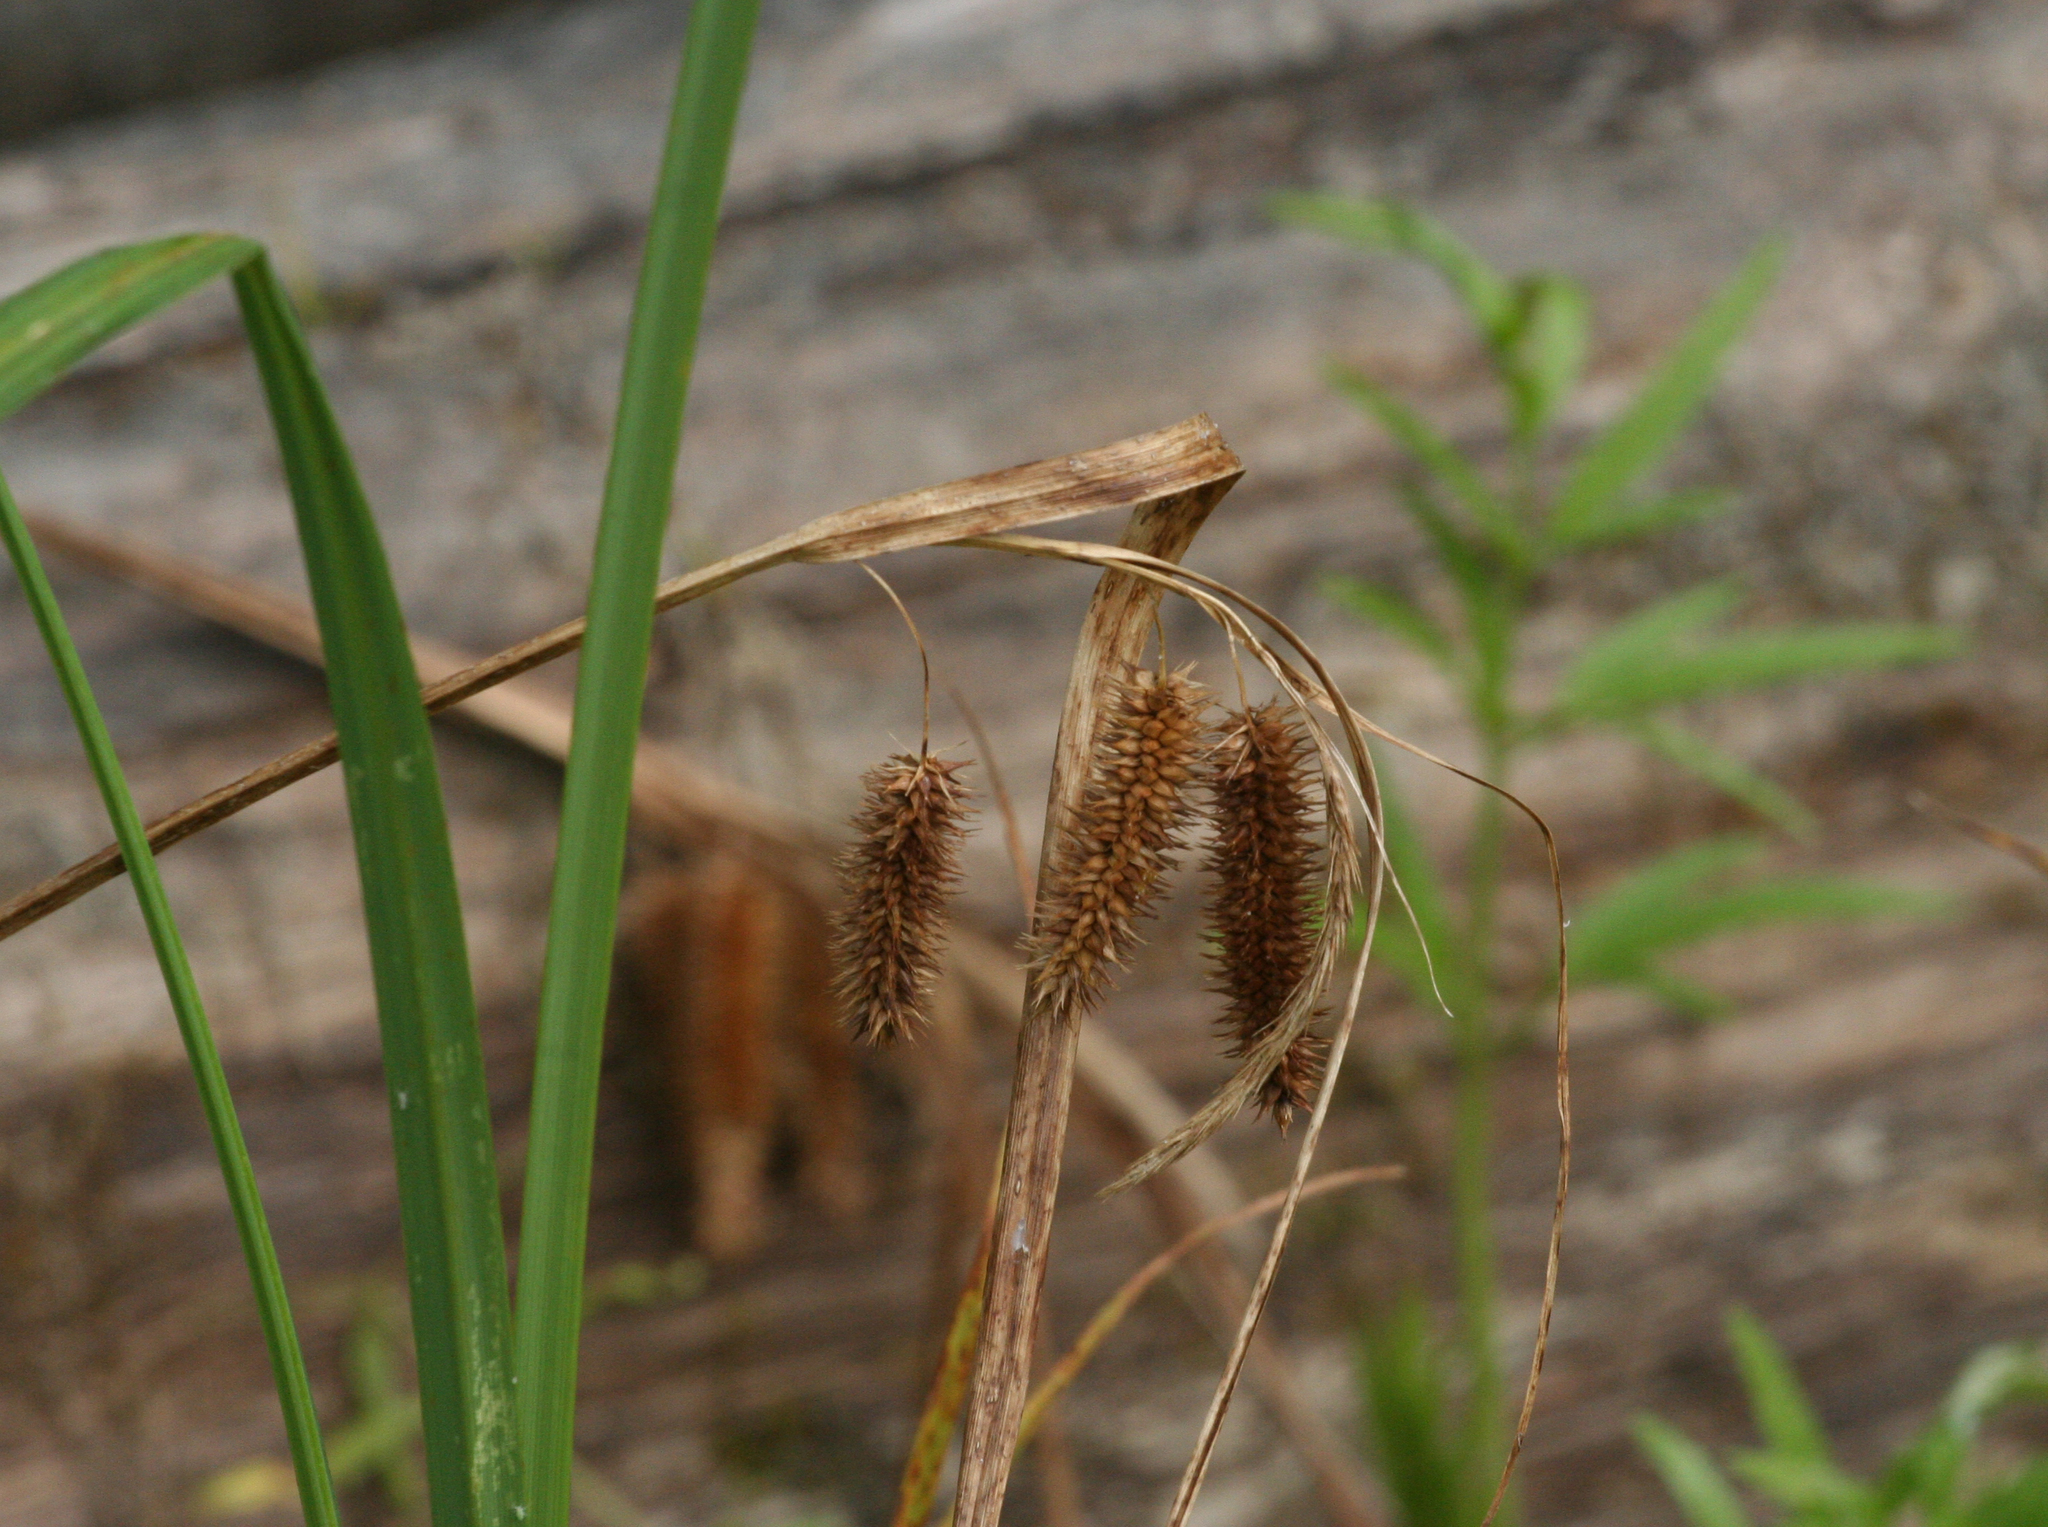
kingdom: Plantae
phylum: Tracheophyta
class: Liliopsida
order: Poales
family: Cyperaceae
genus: Carex
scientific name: Carex pseudocyperus
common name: Cyperus sedge
